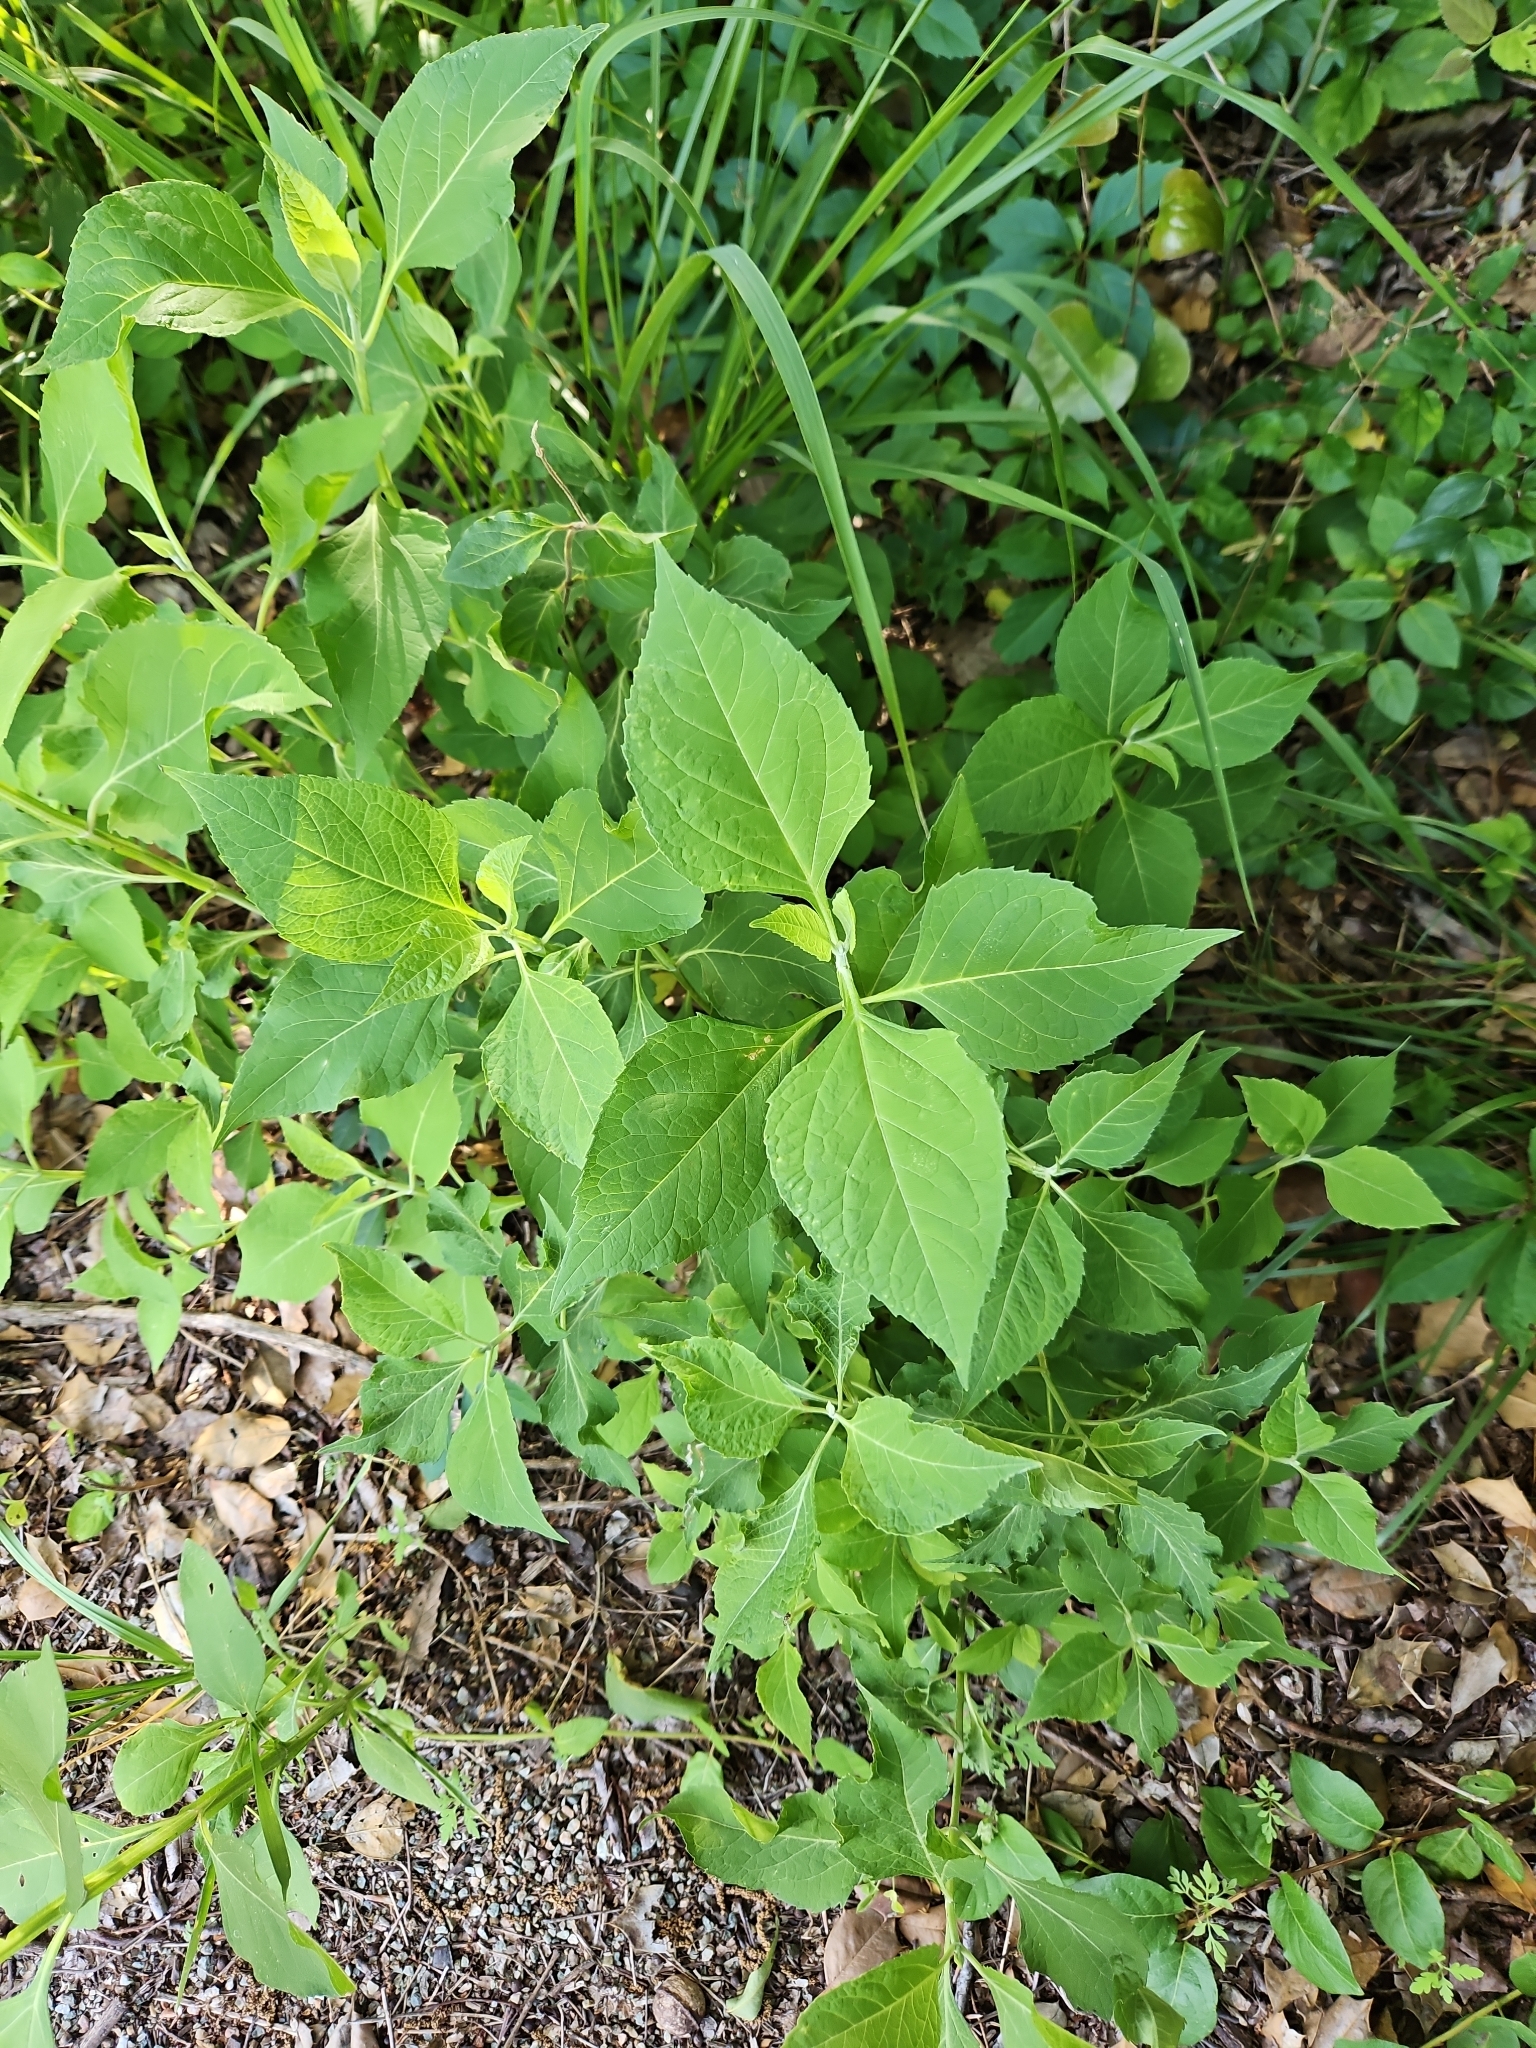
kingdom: Plantae
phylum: Tracheophyta
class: Magnoliopsida
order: Asterales
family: Asteraceae
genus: Verbesina
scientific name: Verbesina occidentalis
